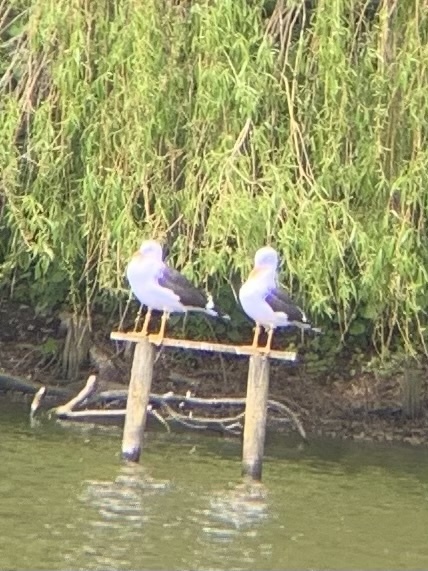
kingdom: Animalia
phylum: Chordata
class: Aves
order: Charadriiformes
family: Laridae
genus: Larus
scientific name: Larus fuscus
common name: Lesser black-backed gull
